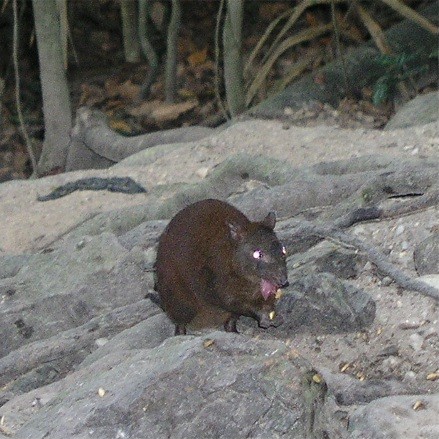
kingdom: Animalia
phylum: Chordata
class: Mammalia
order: Diprotodontia
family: Hypsiprymnodontidae
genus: Hypsiprymnodon
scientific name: Hypsiprymnodon moschatus
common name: Musky rat-kangaroo
